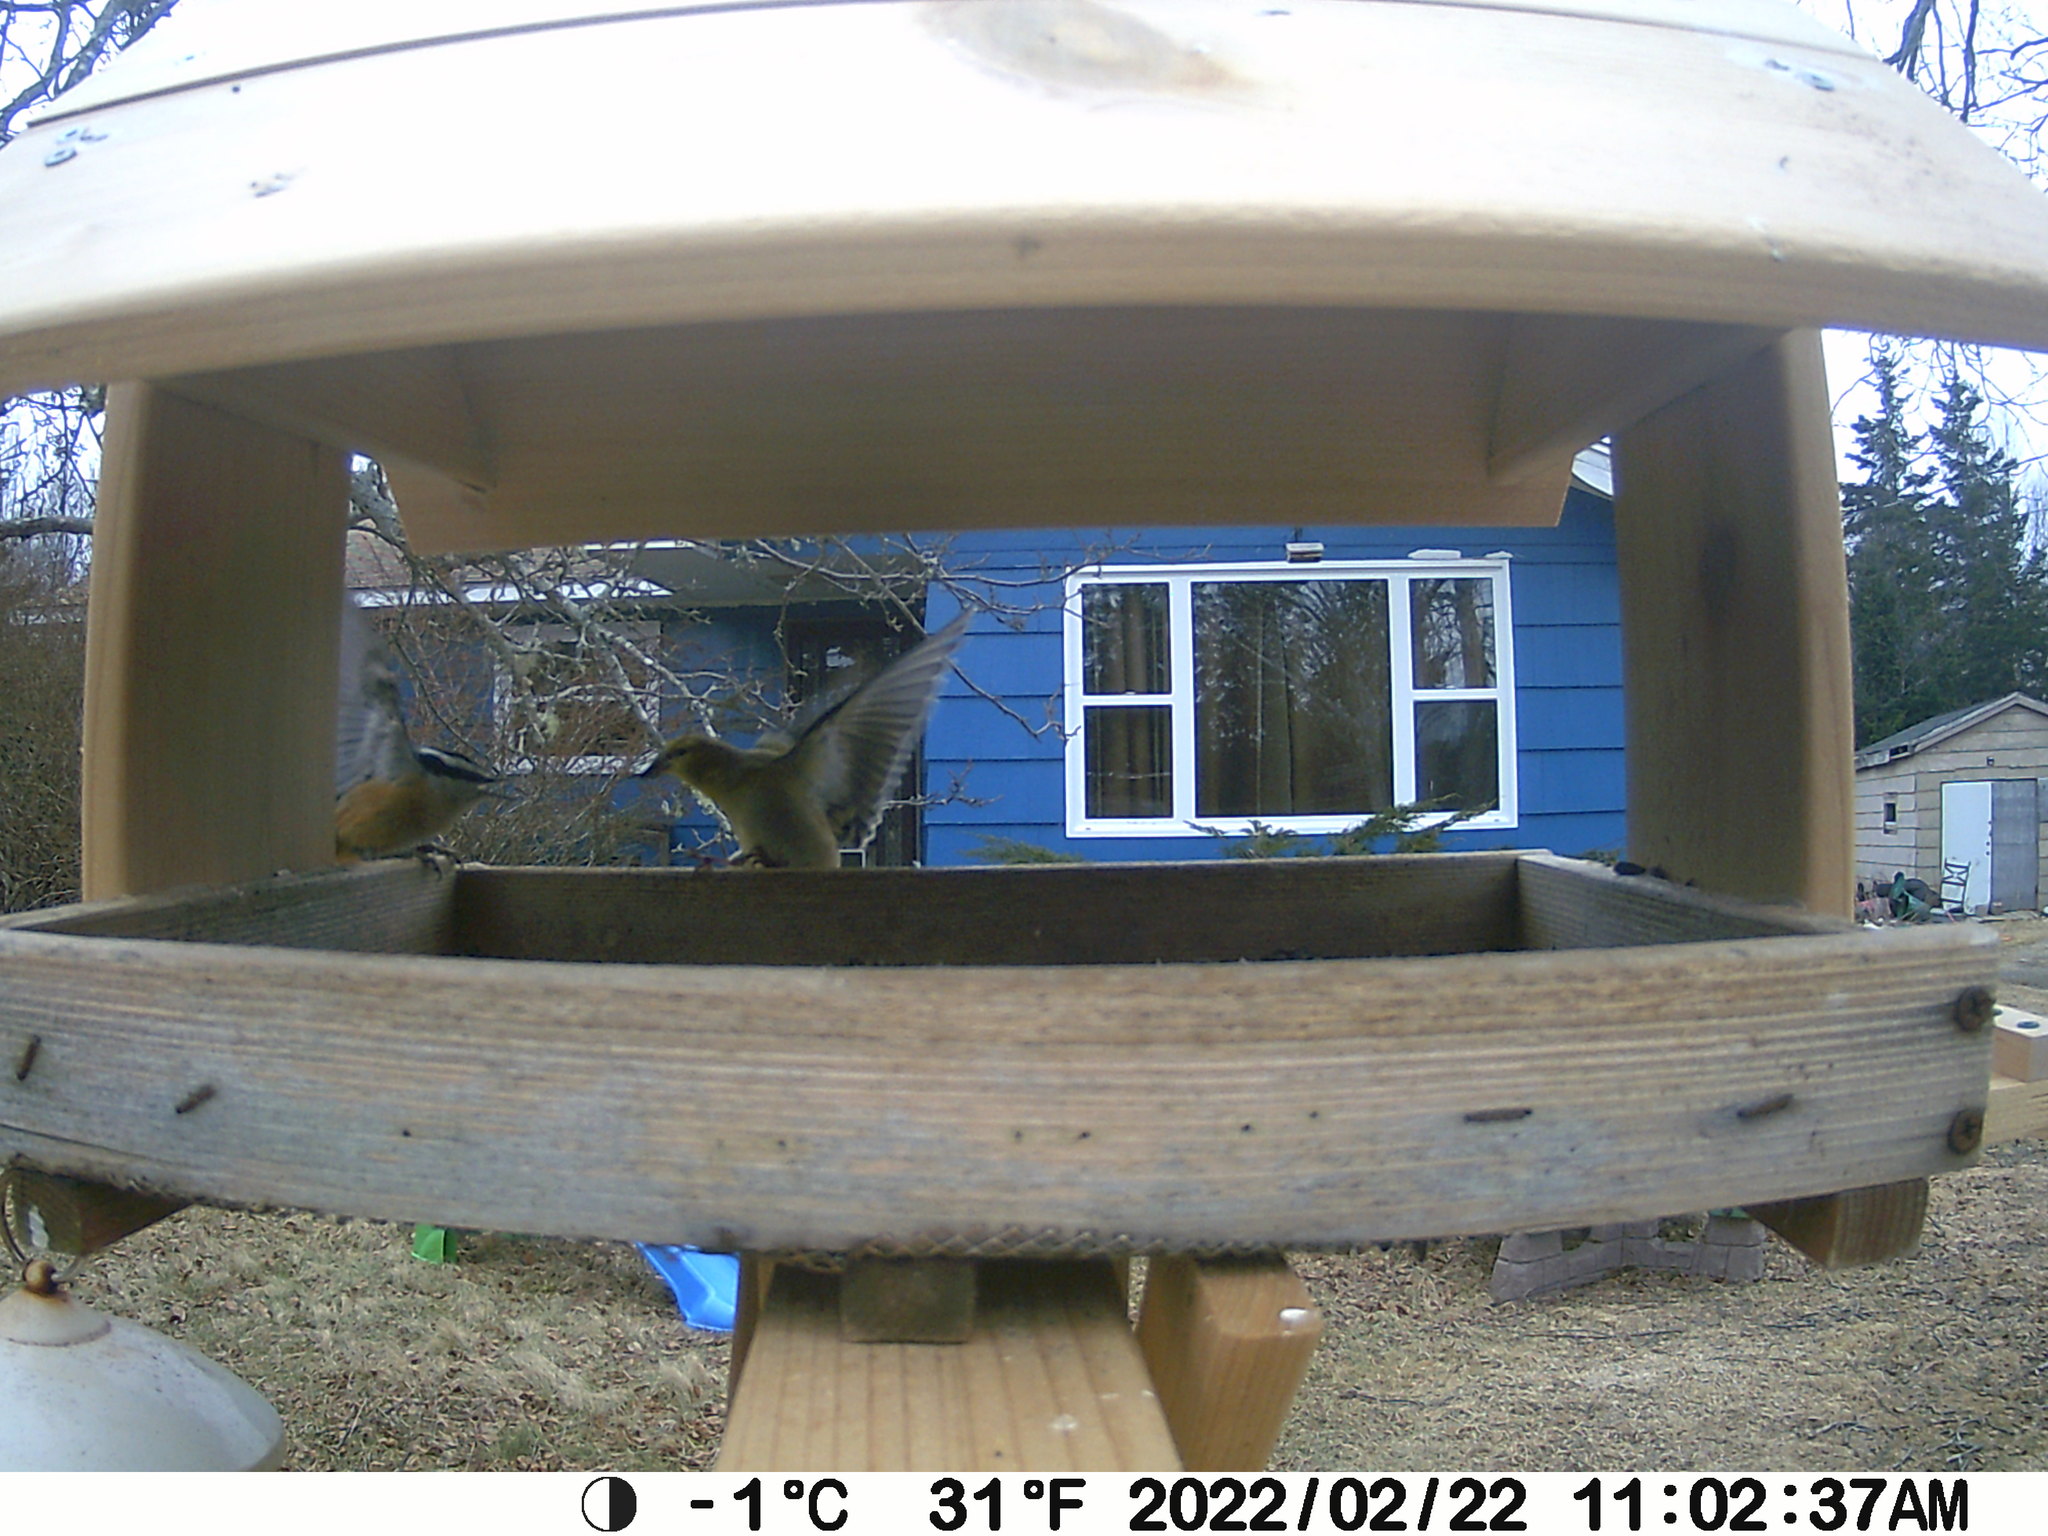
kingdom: Animalia
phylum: Chordata
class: Aves
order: Passeriformes
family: Sittidae
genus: Sitta
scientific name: Sitta canadensis
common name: Red-breasted nuthatch
